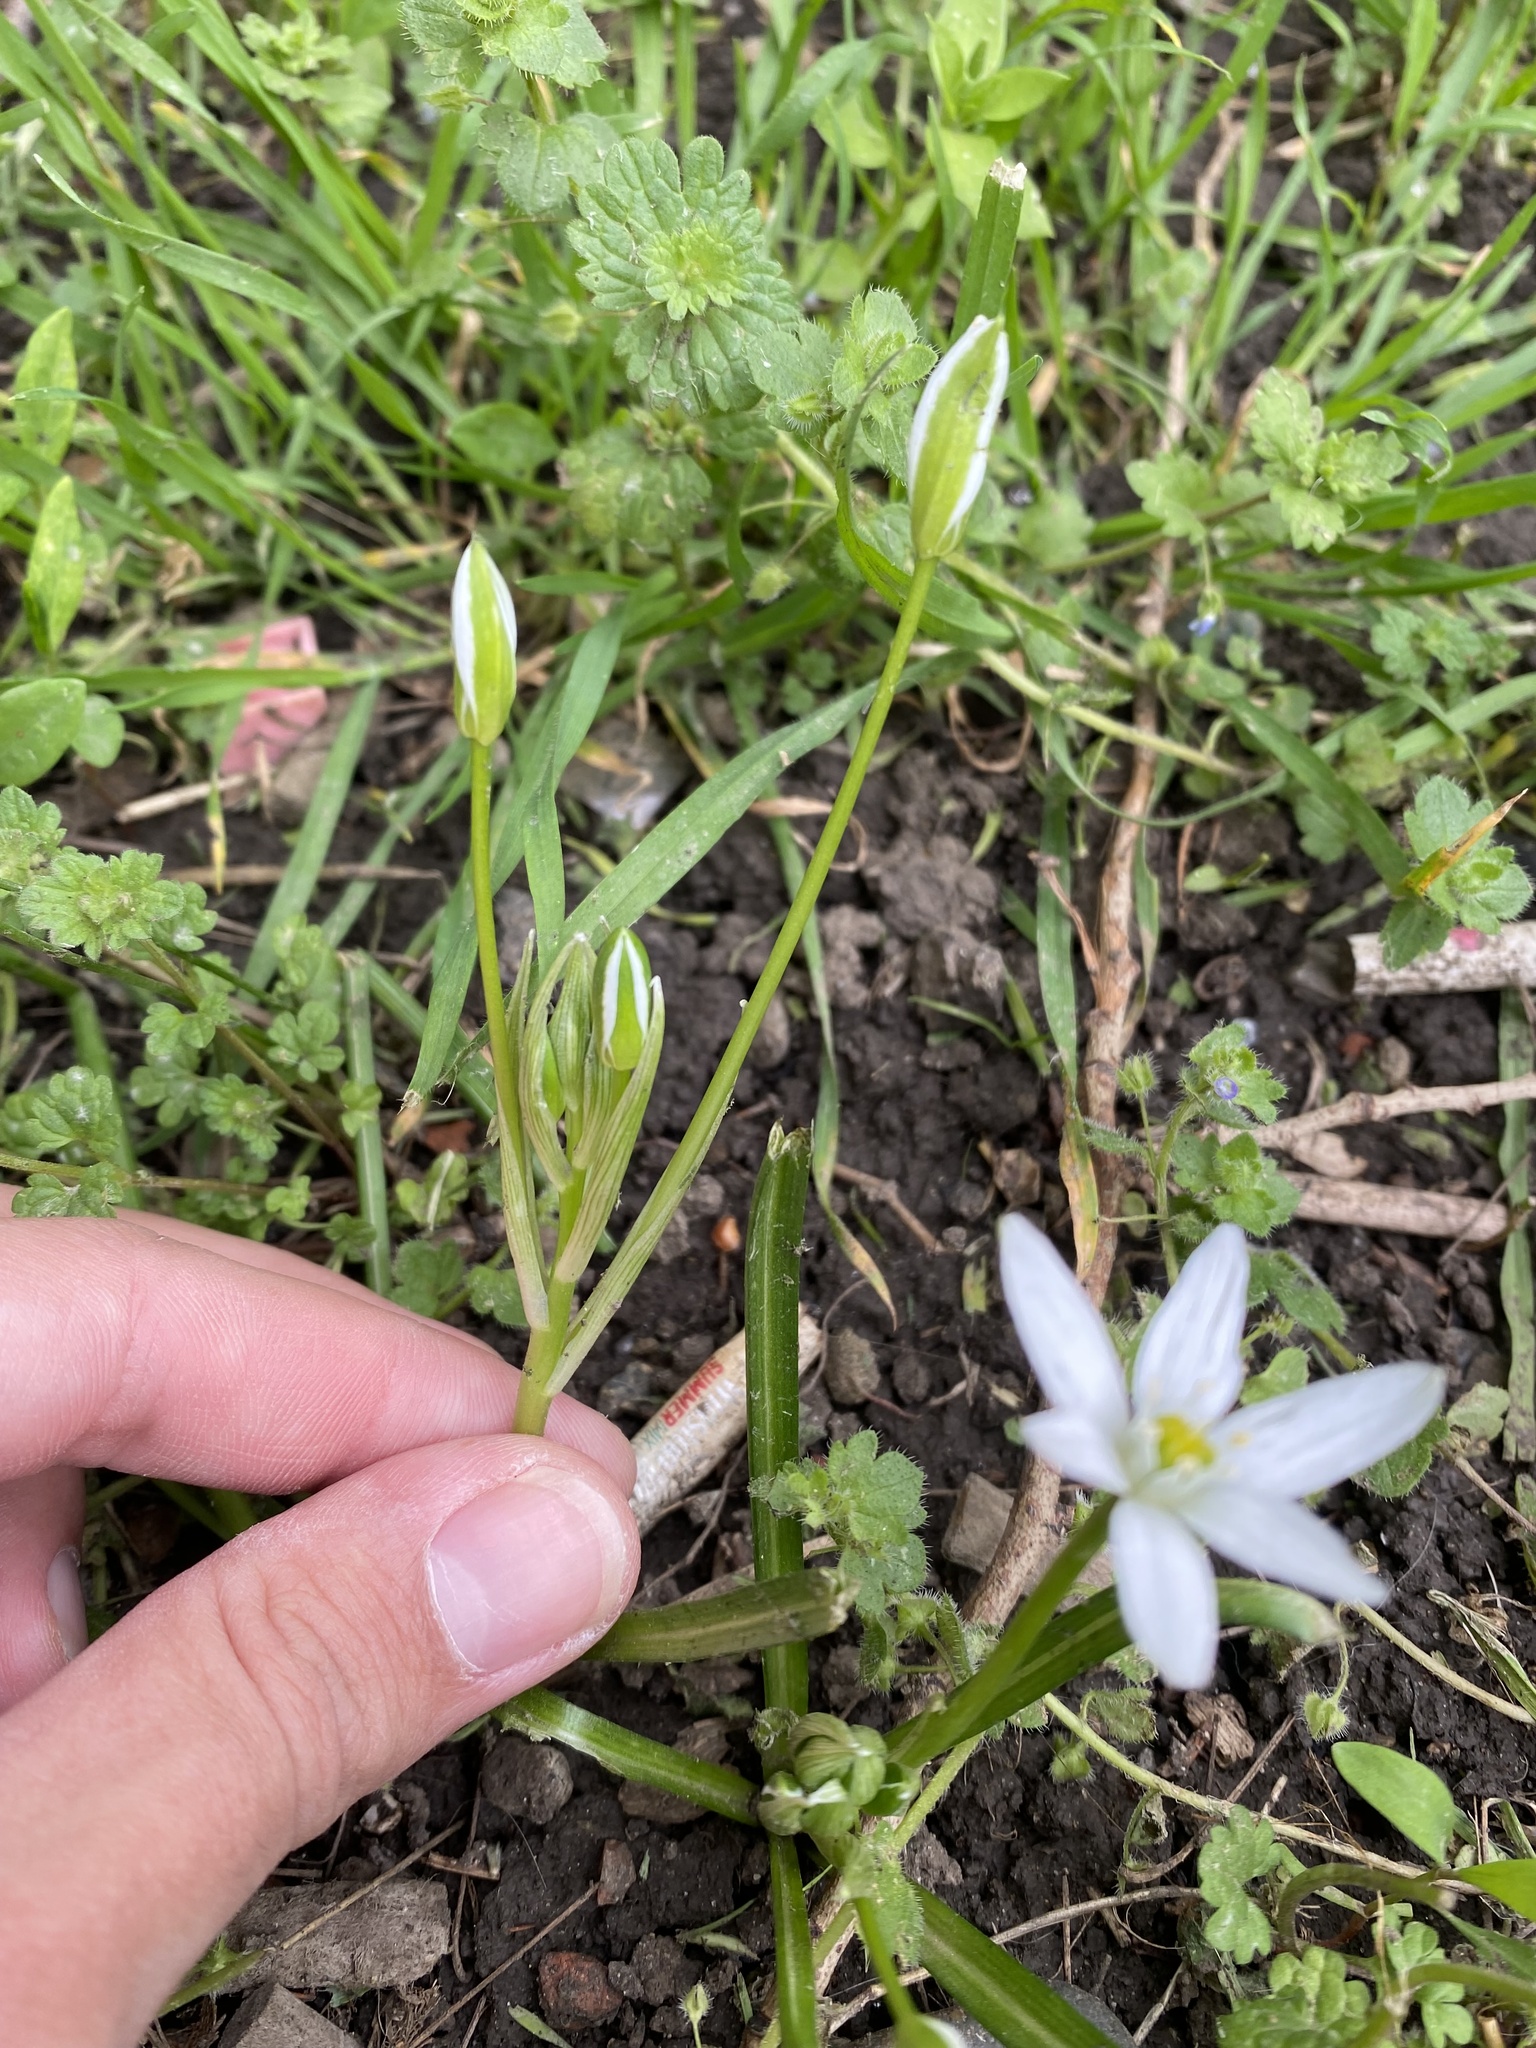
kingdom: Plantae
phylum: Tracheophyta
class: Liliopsida
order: Asparagales
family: Asparagaceae
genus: Ornithogalum
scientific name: Ornithogalum woronowii
